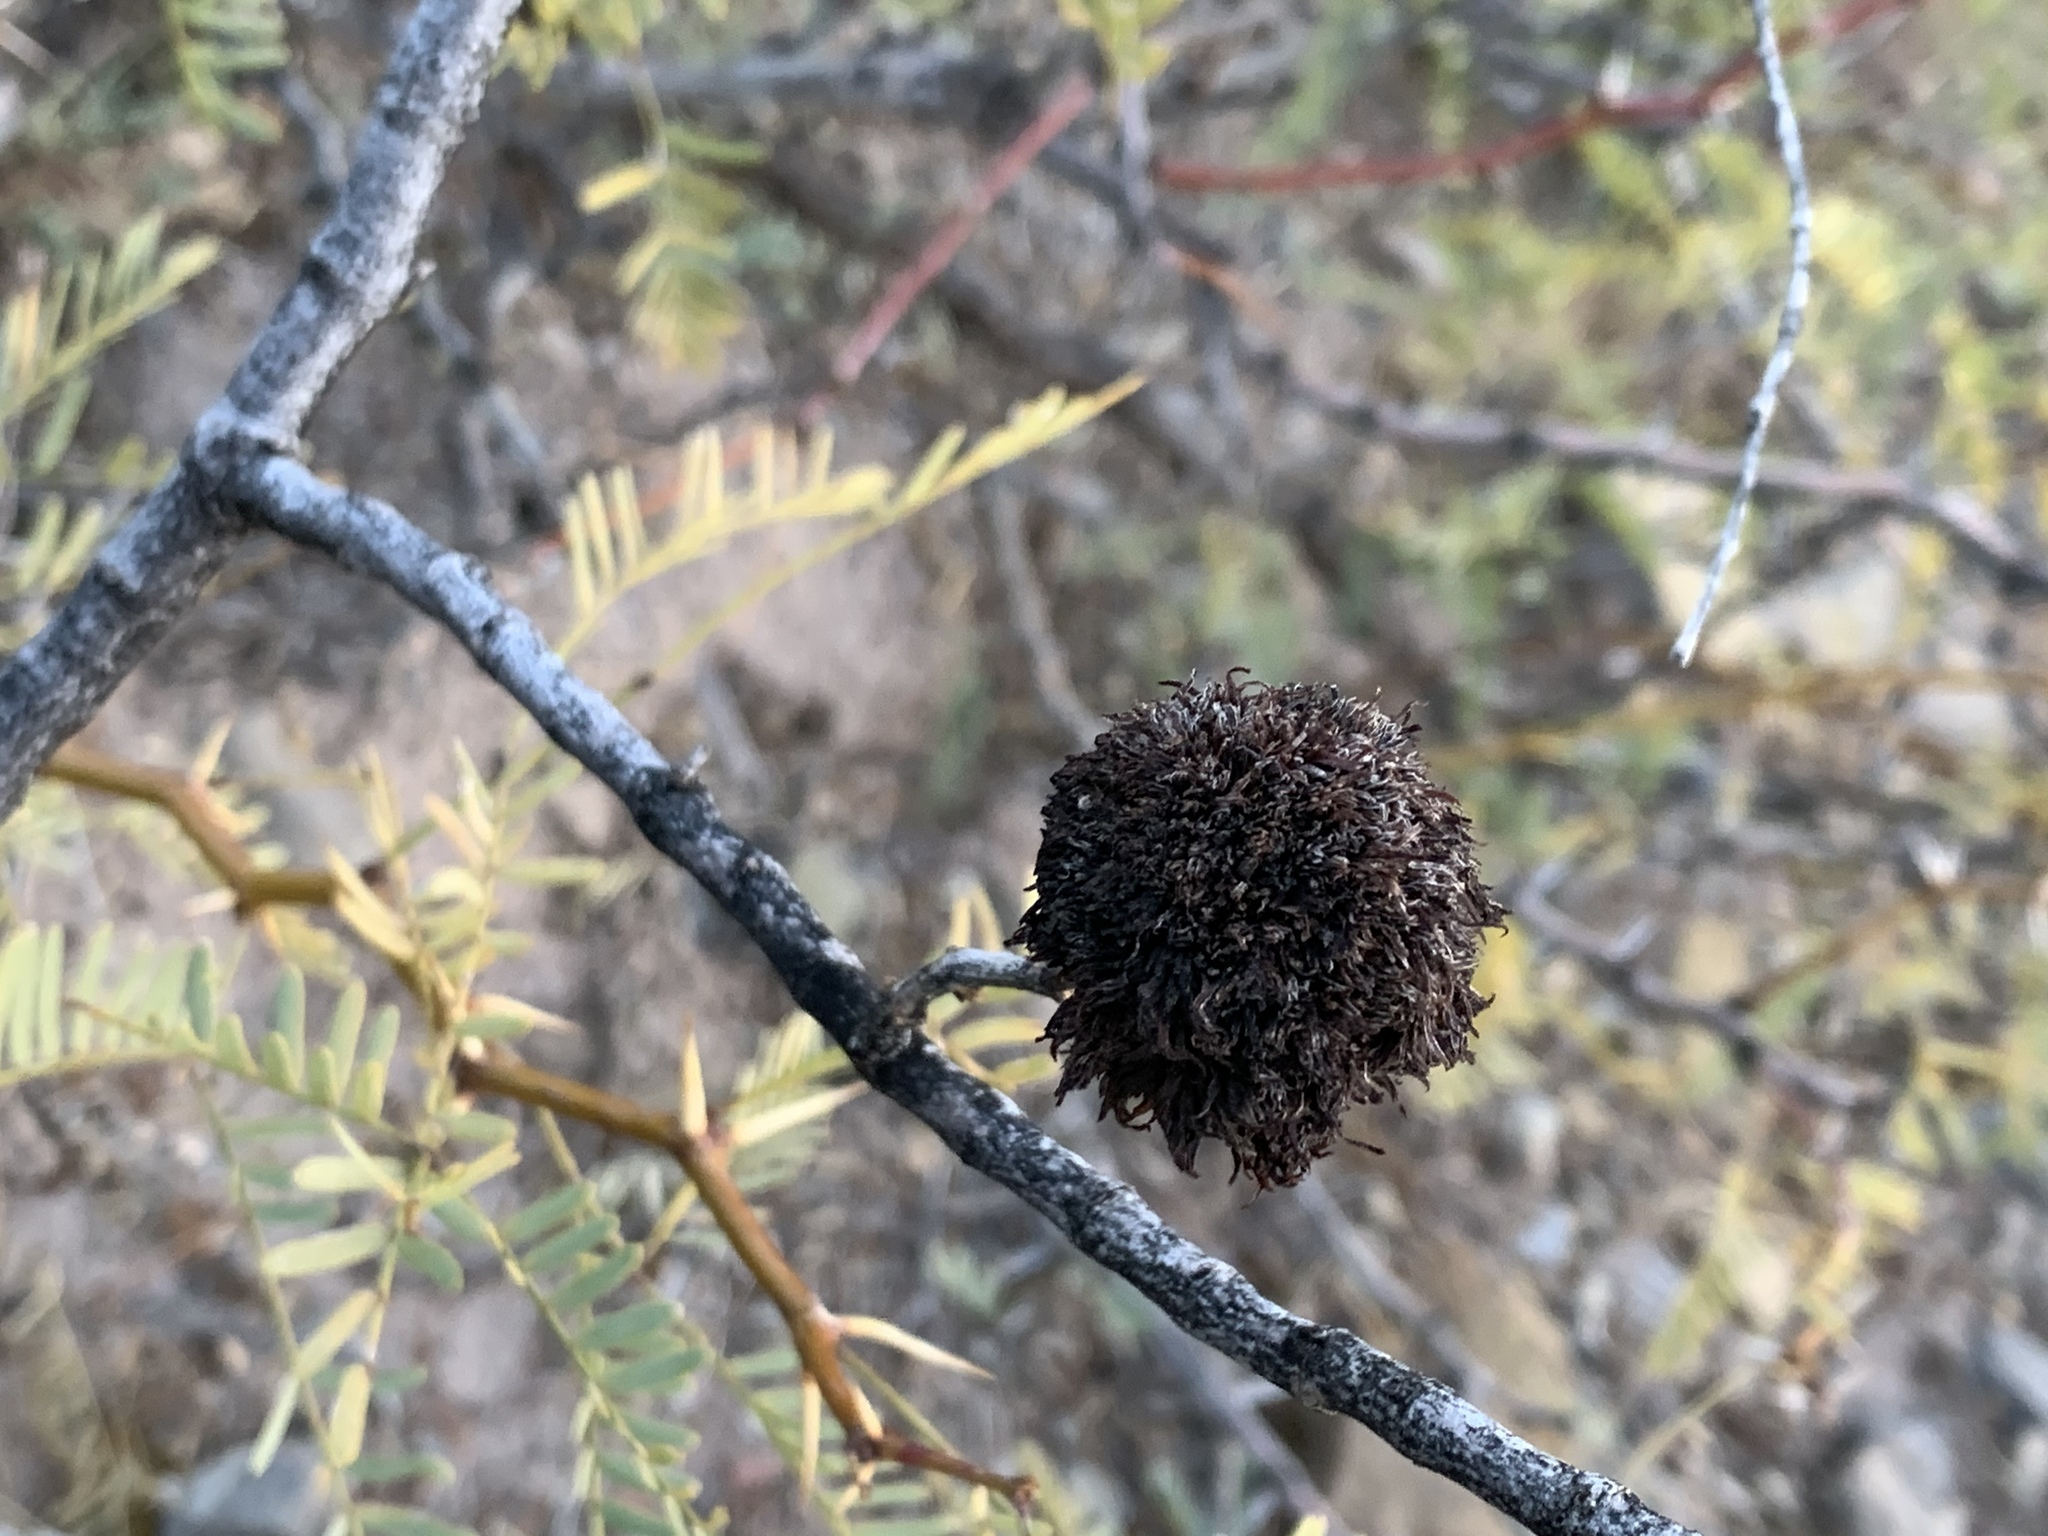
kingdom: Animalia
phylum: Arthropoda
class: Insecta
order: Diptera
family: Cecidomyiidae
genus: Asphondylia
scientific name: Asphondylia auripila
